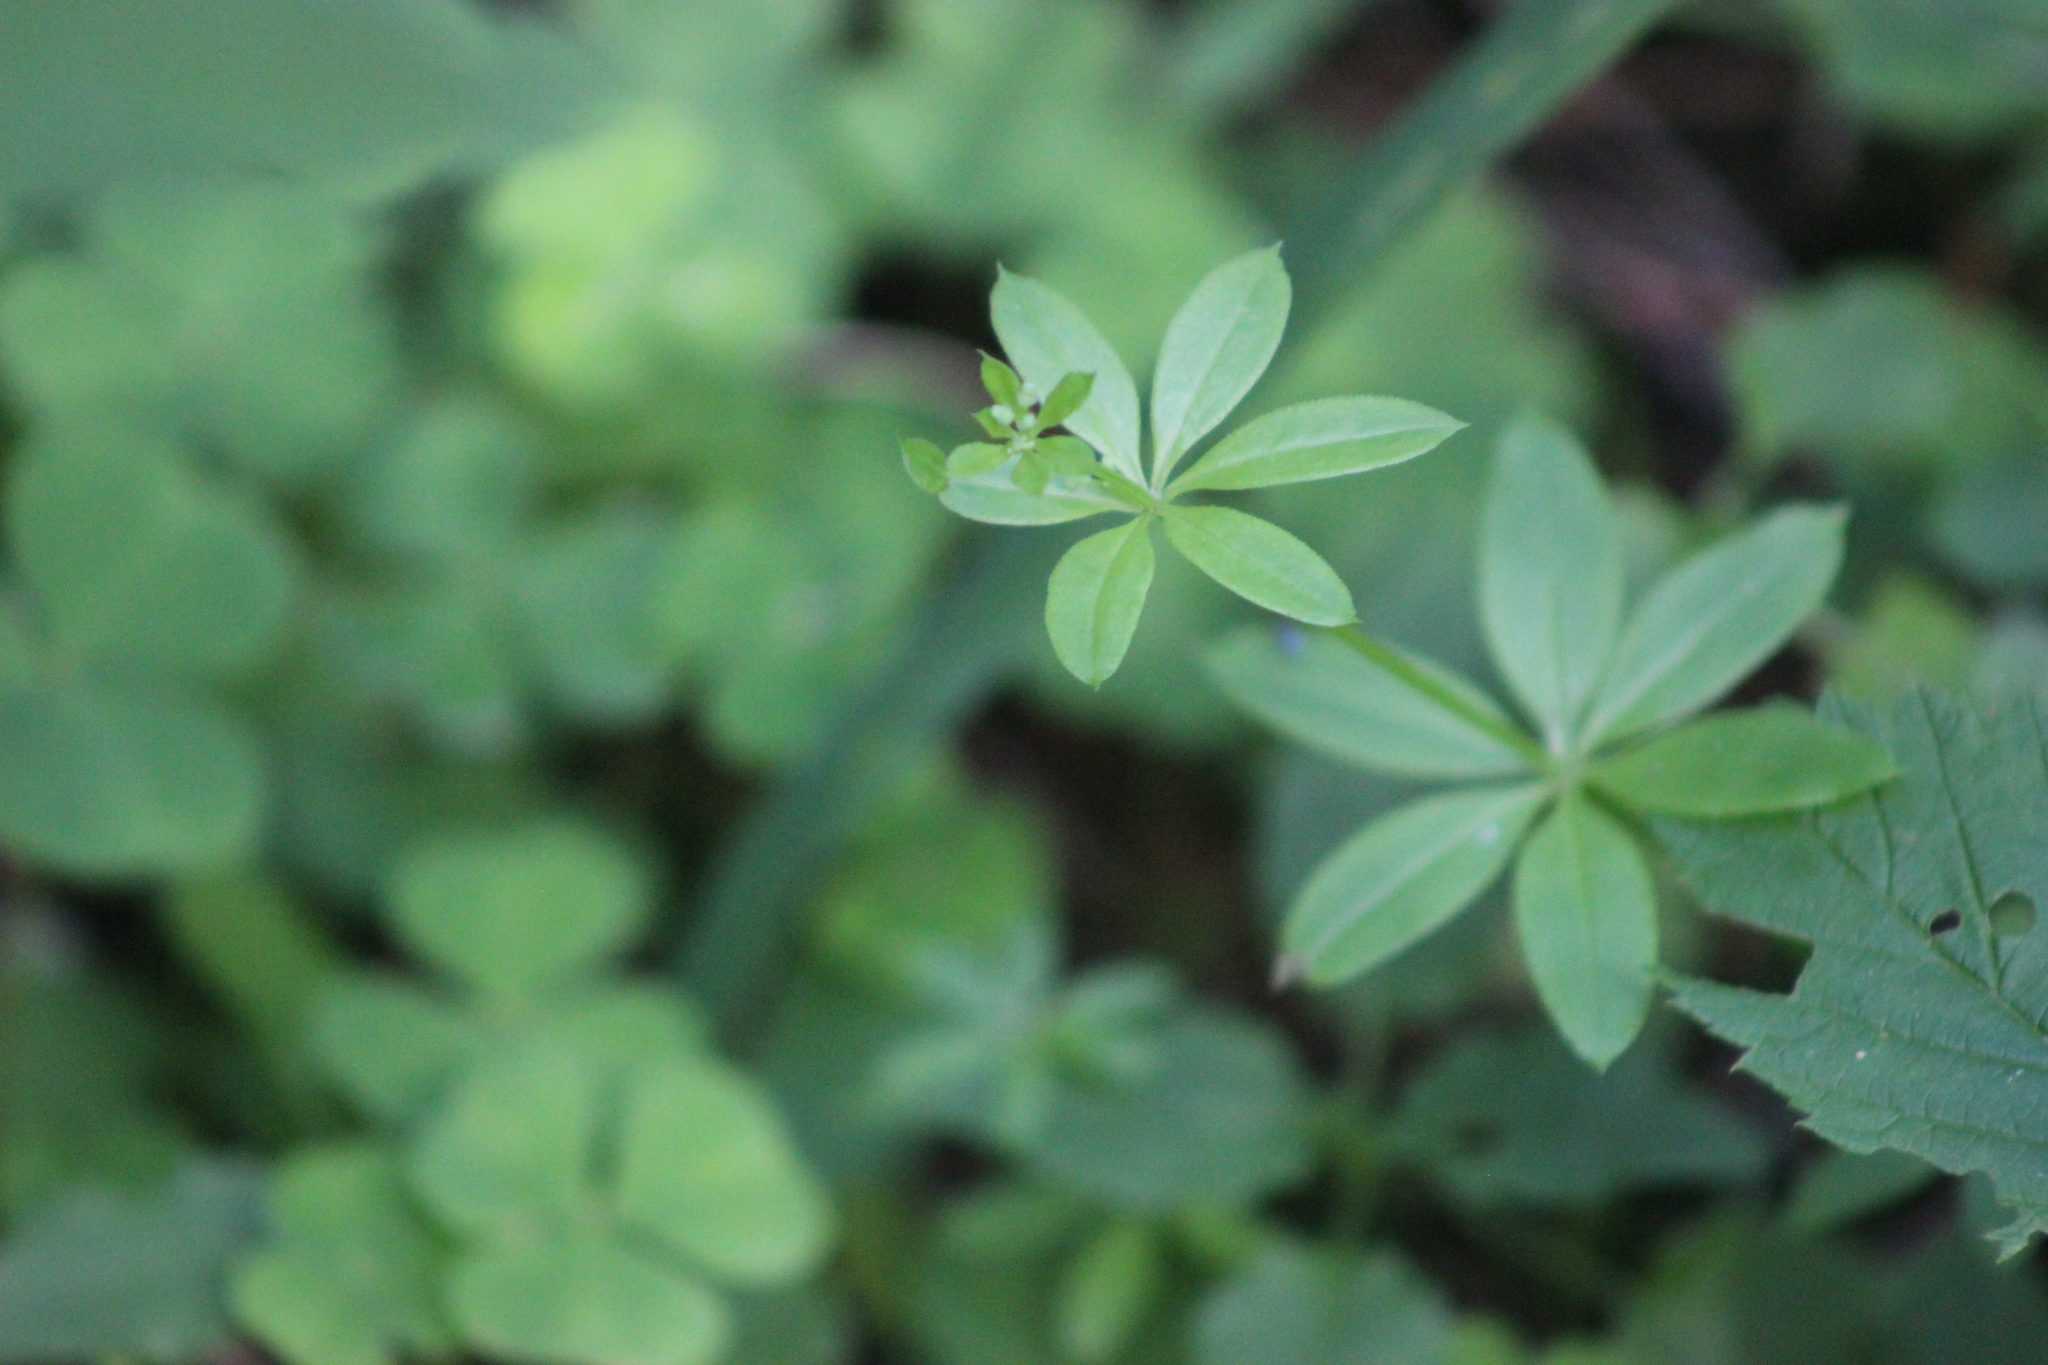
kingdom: Plantae
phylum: Tracheophyta
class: Magnoliopsida
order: Gentianales
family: Rubiaceae
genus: Galium
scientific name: Galium triflorum
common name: Fragrant bedstraw
